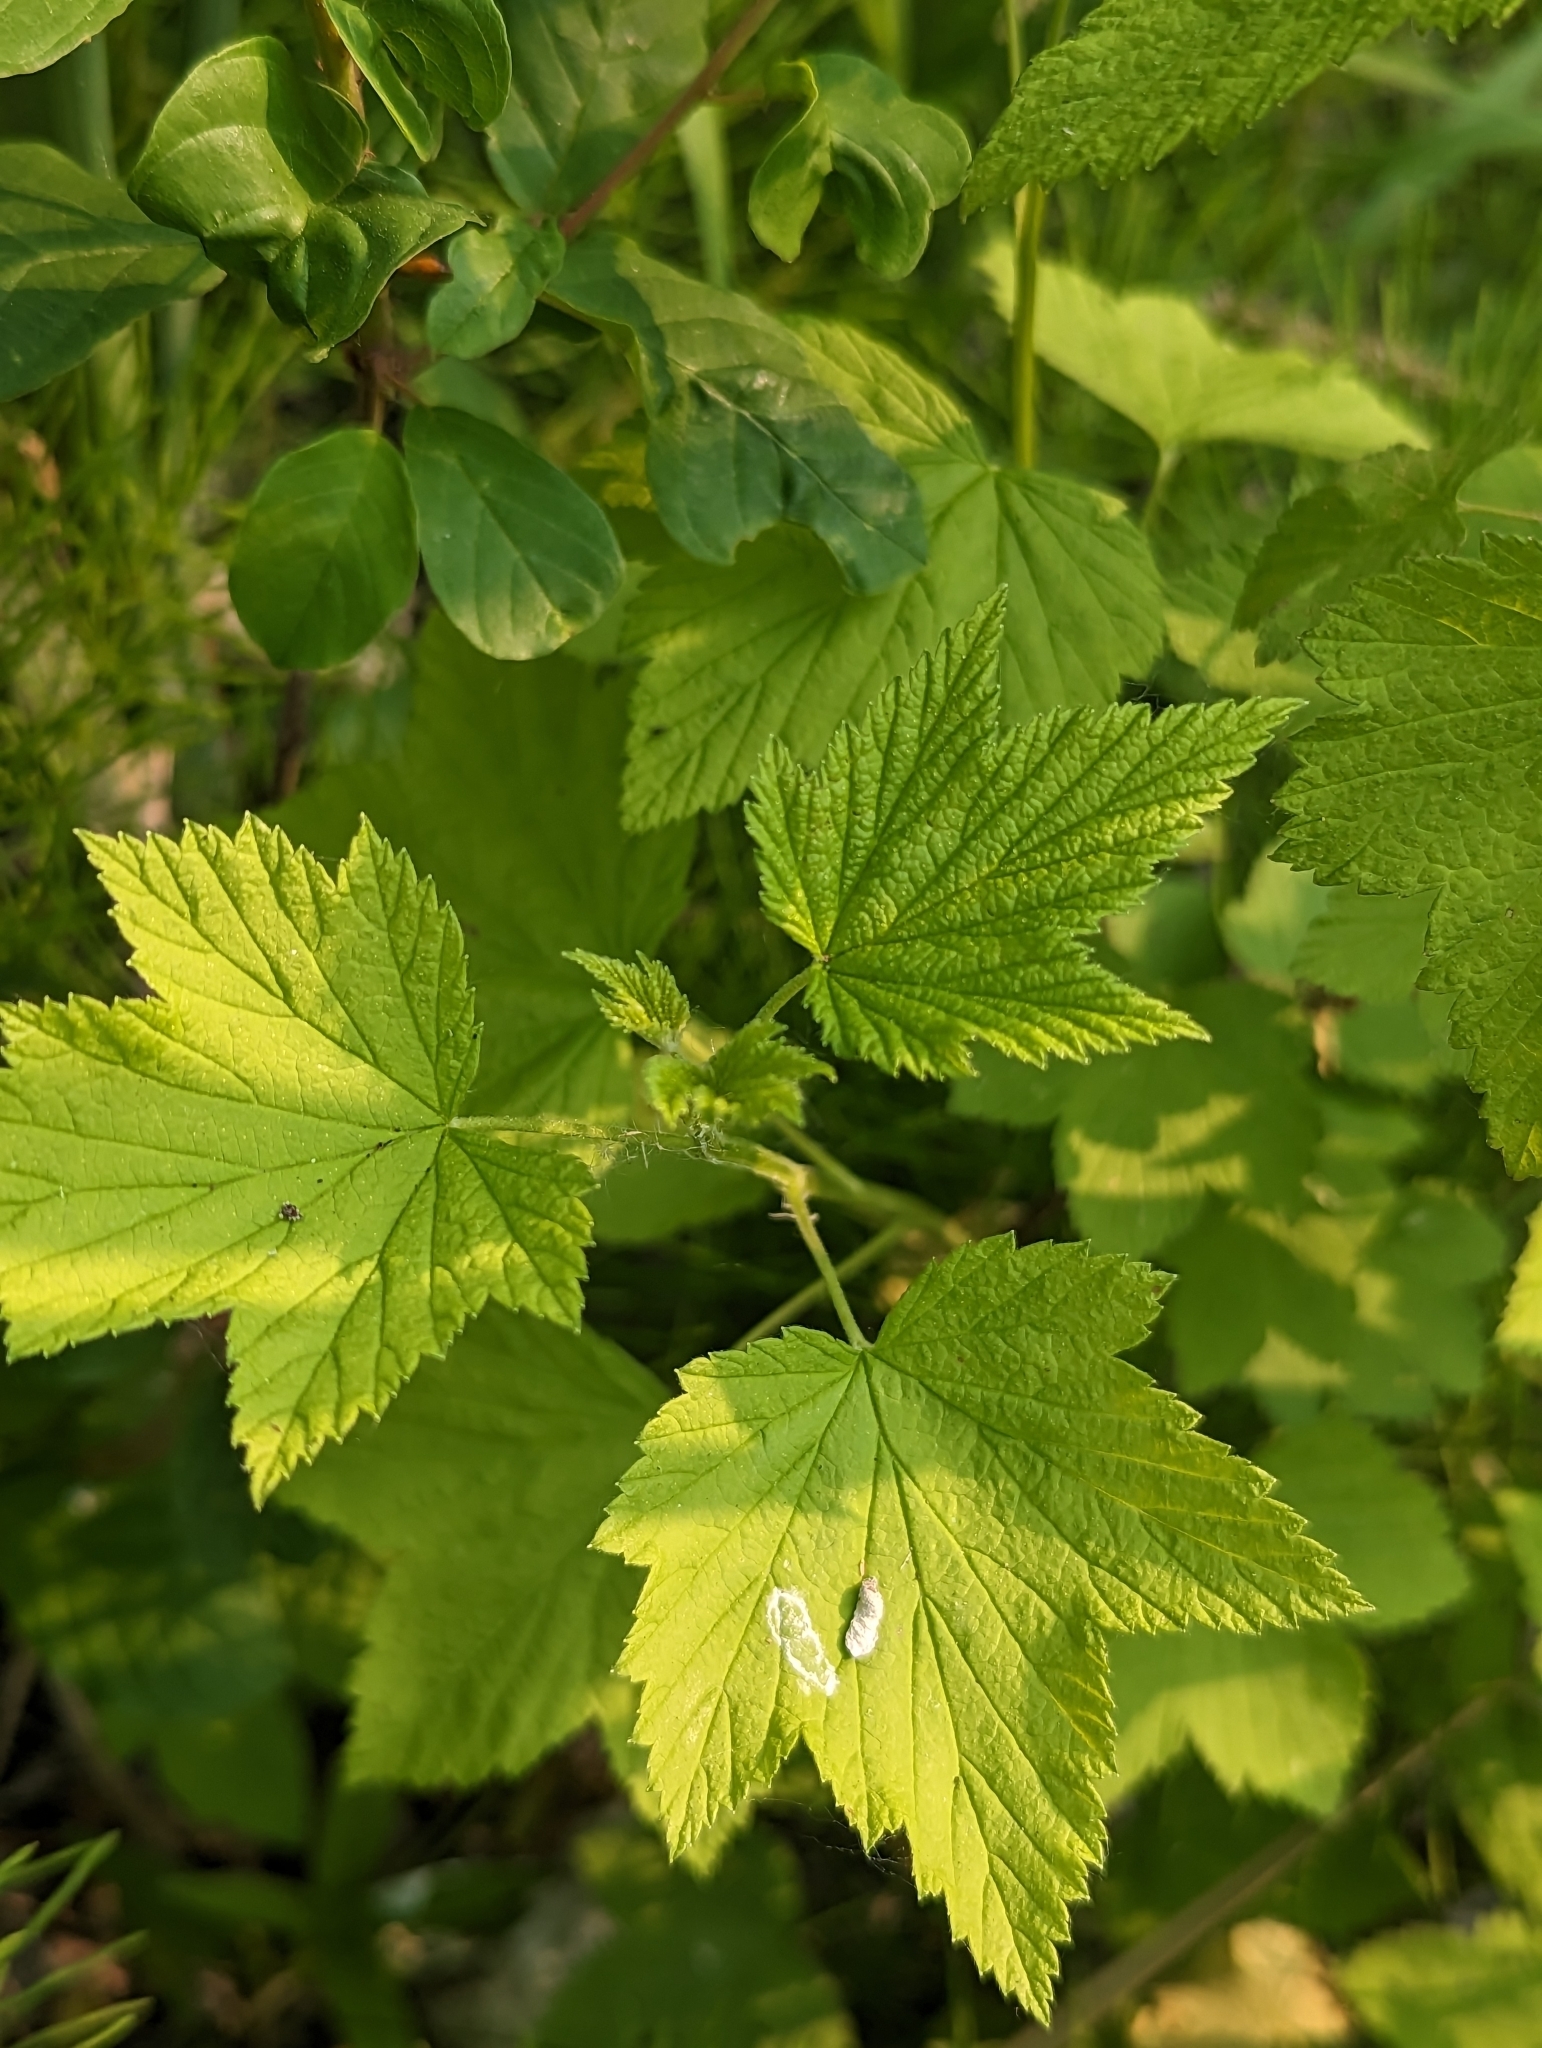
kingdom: Plantae
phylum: Tracheophyta
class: Magnoliopsida
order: Saxifragales
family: Grossulariaceae
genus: Ribes
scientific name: Ribes americanum
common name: American black currant
